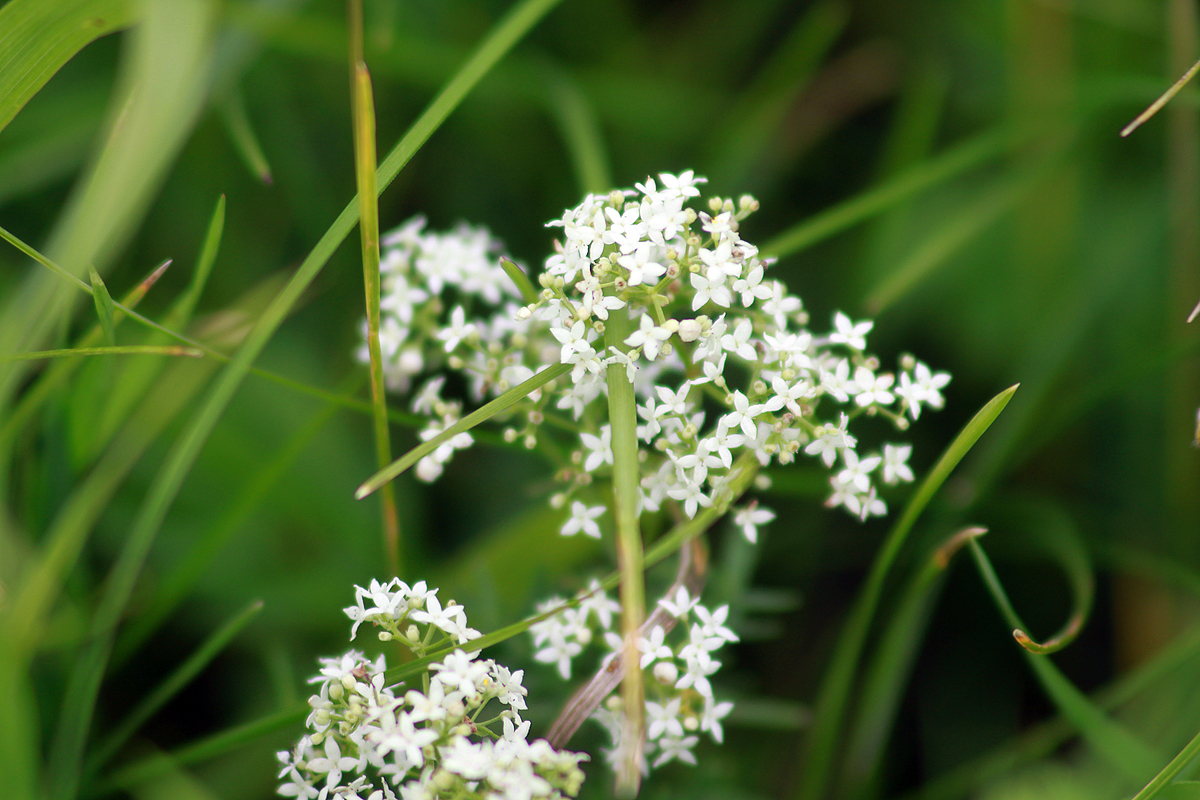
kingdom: Plantae
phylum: Tracheophyta
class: Magnoliopsida
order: Gentianales
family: Rubiaceae
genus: Galium
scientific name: Galium boreale
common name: Northern bedstraw
